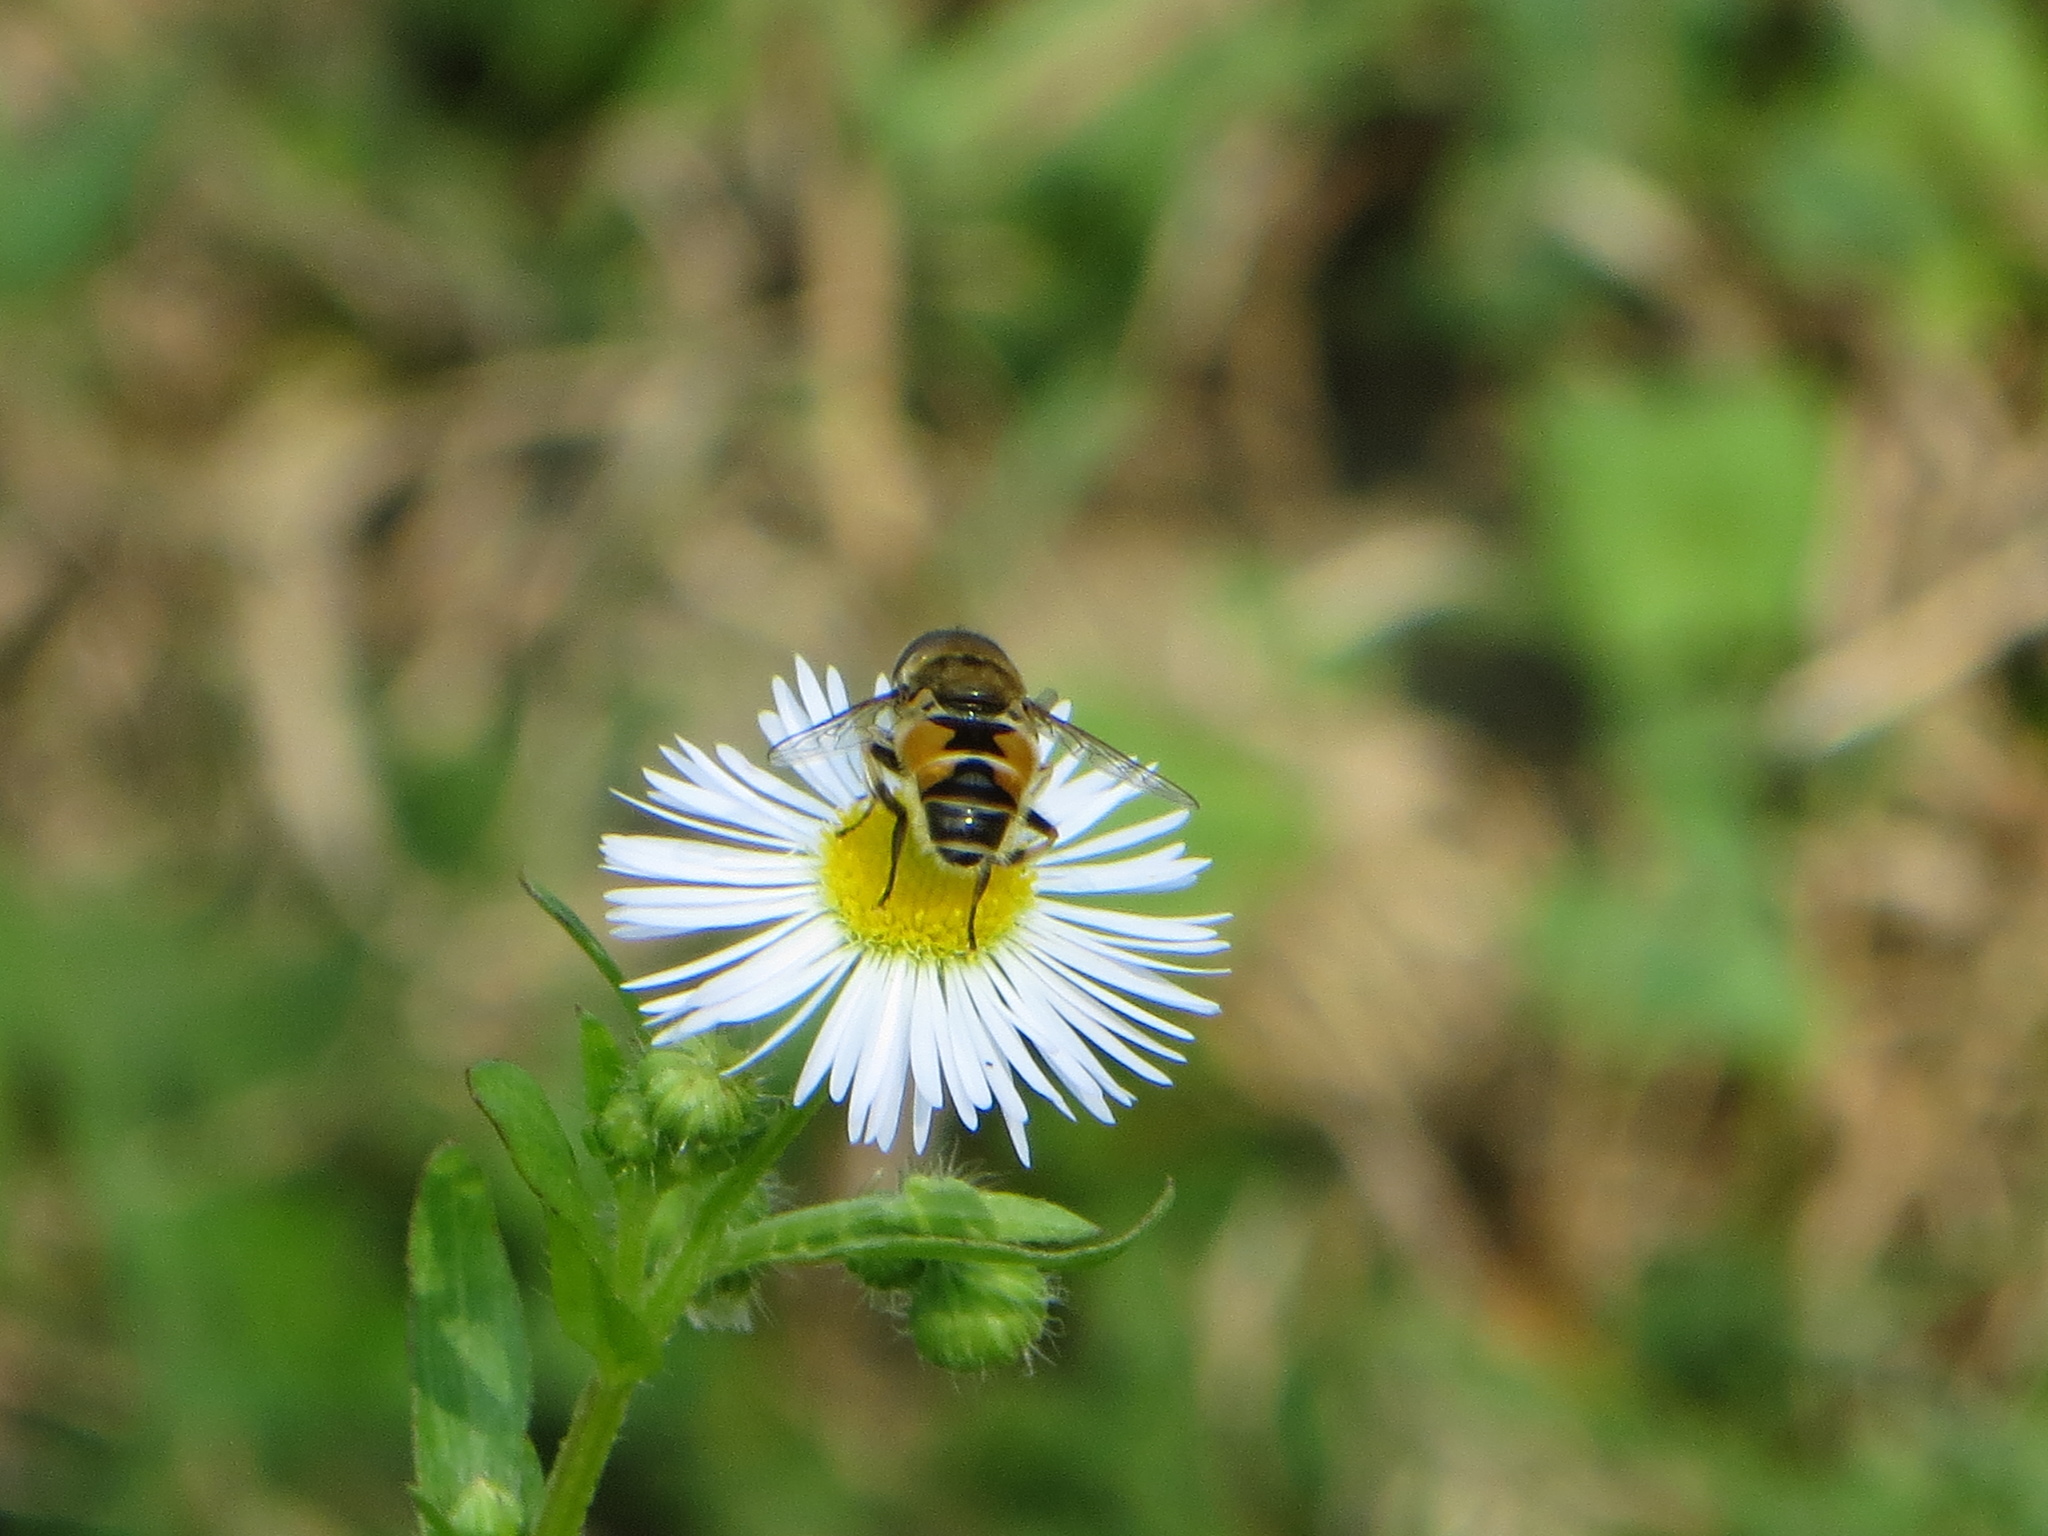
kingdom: Animalia
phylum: Arthropoda
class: Insecta
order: Diptera
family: Syrphidae
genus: Eristalis
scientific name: Eristalis arbustorum
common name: Hover fly
